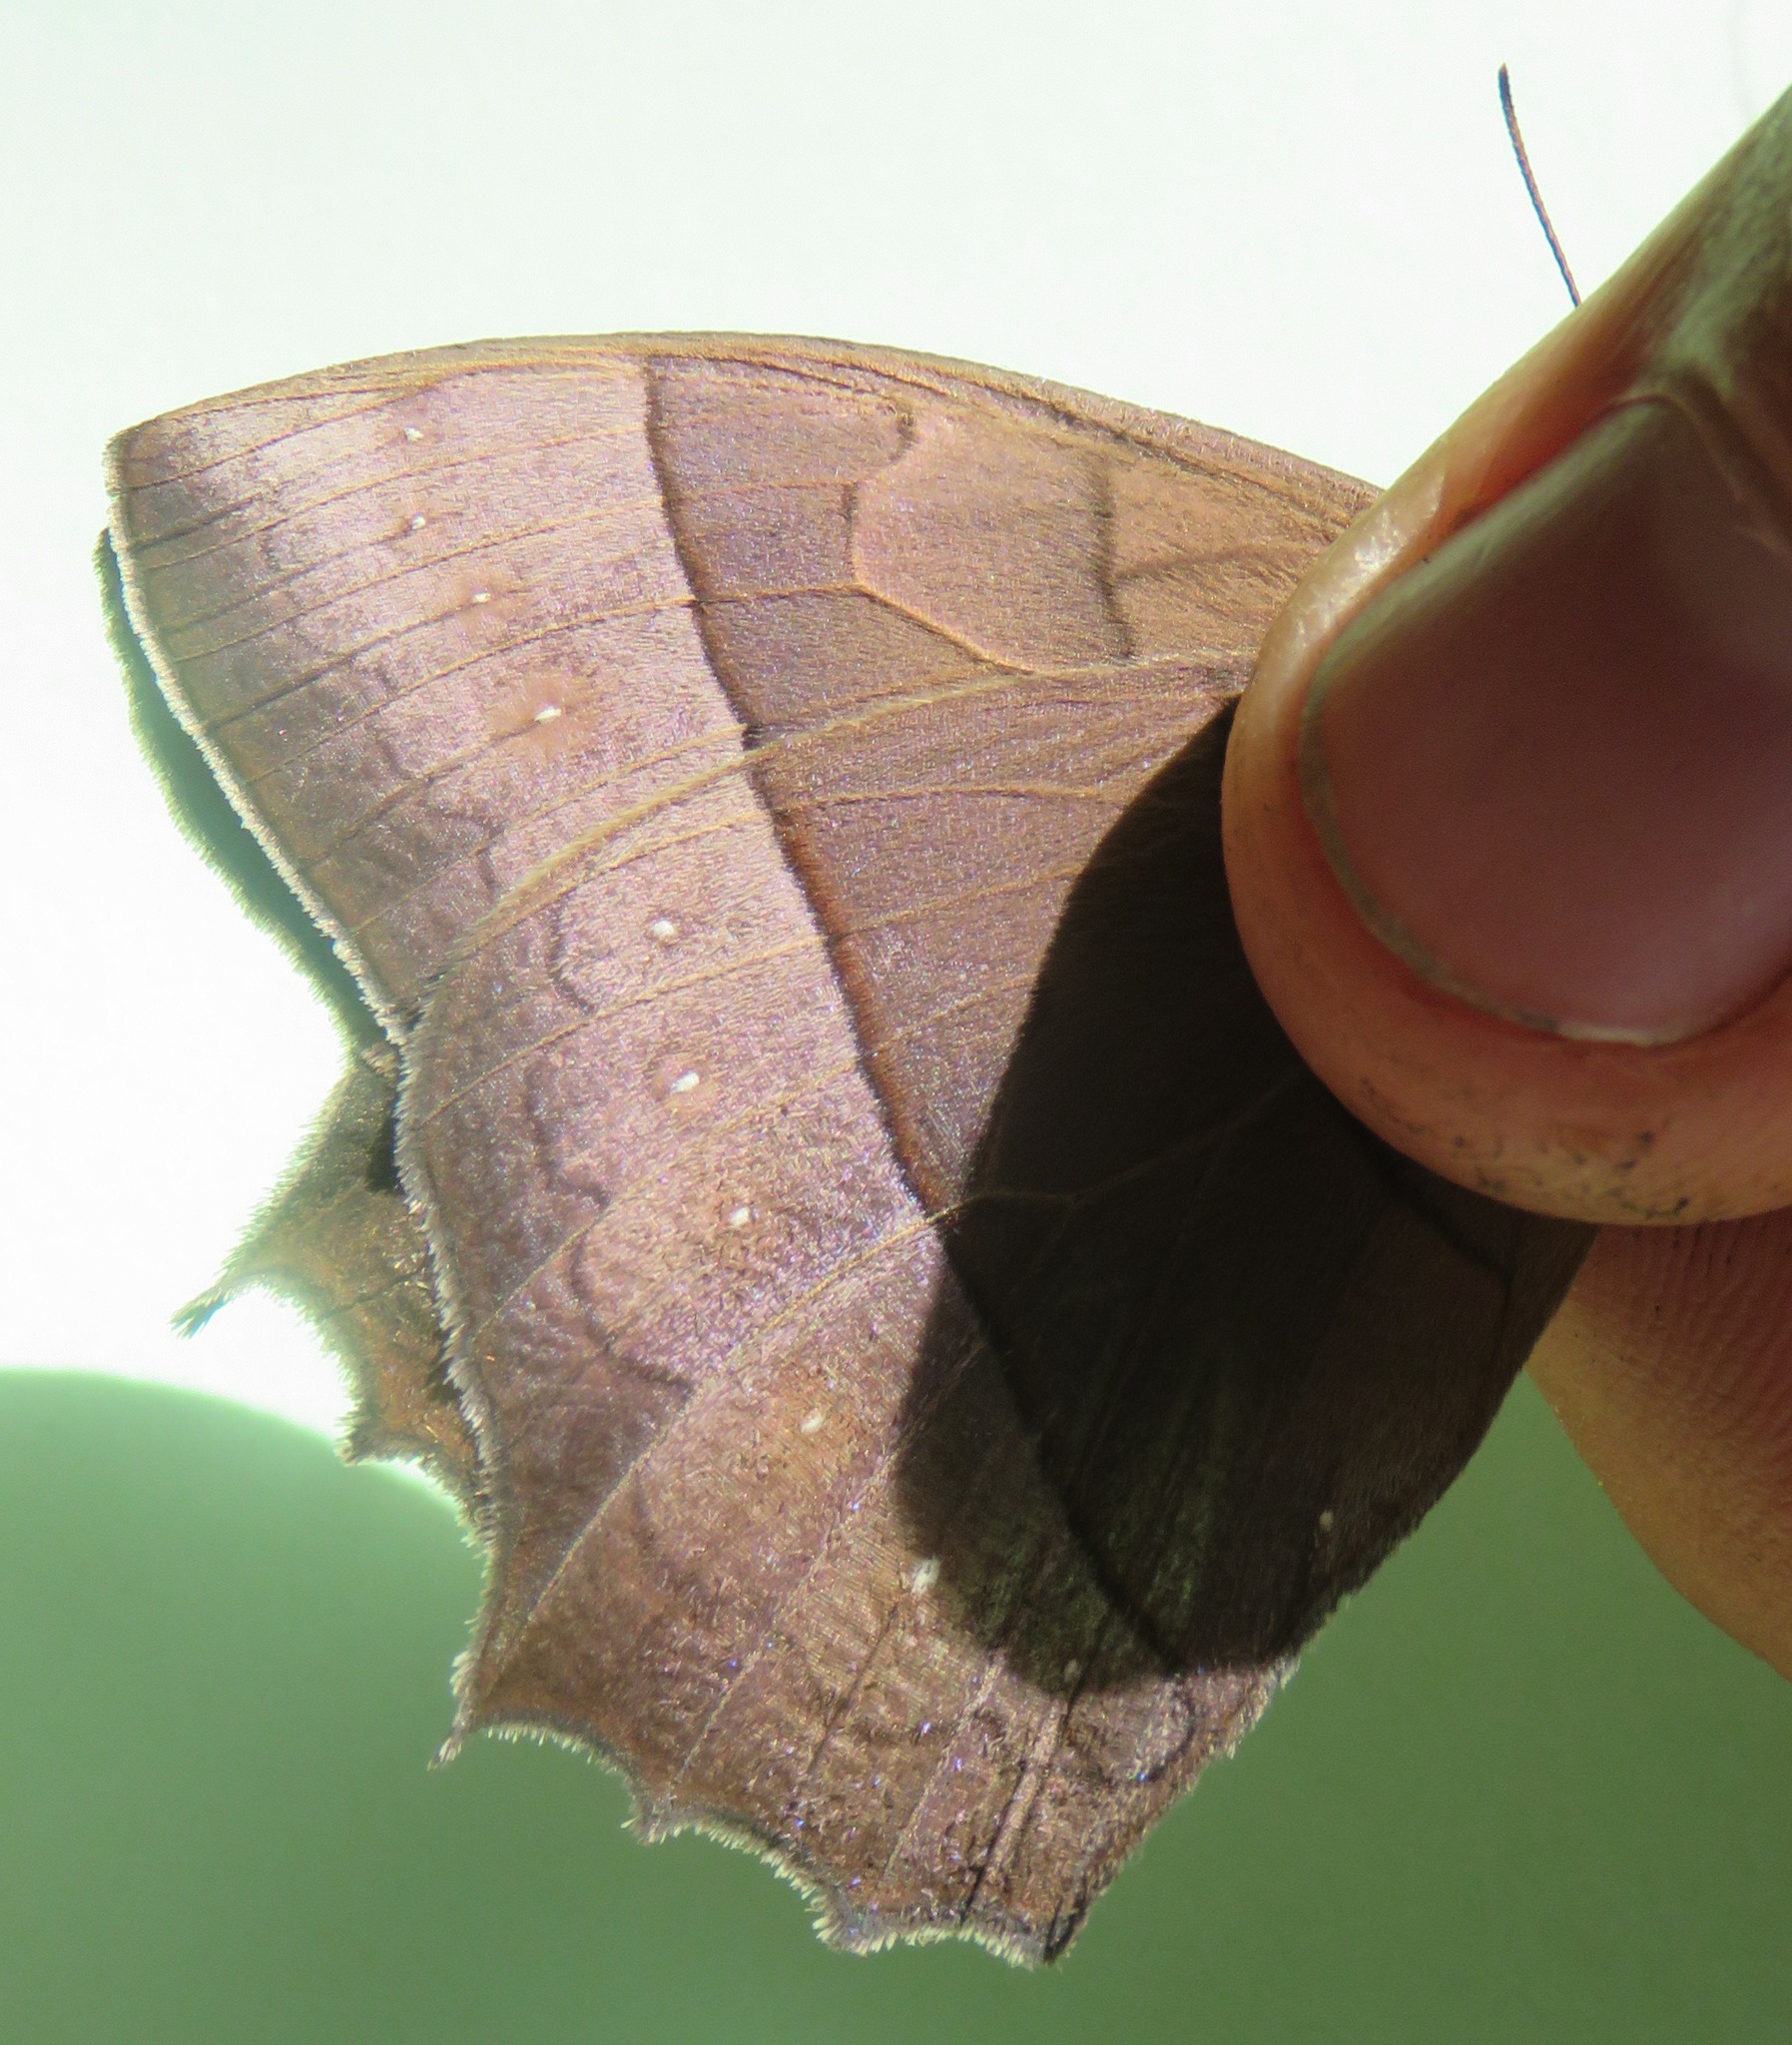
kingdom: Animalia
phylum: Arthropoda
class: Insecta
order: Lepidoptera
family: Nymphalidae
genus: Taygetis
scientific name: Taygetis virgilia
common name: Stub-tailed satyr
